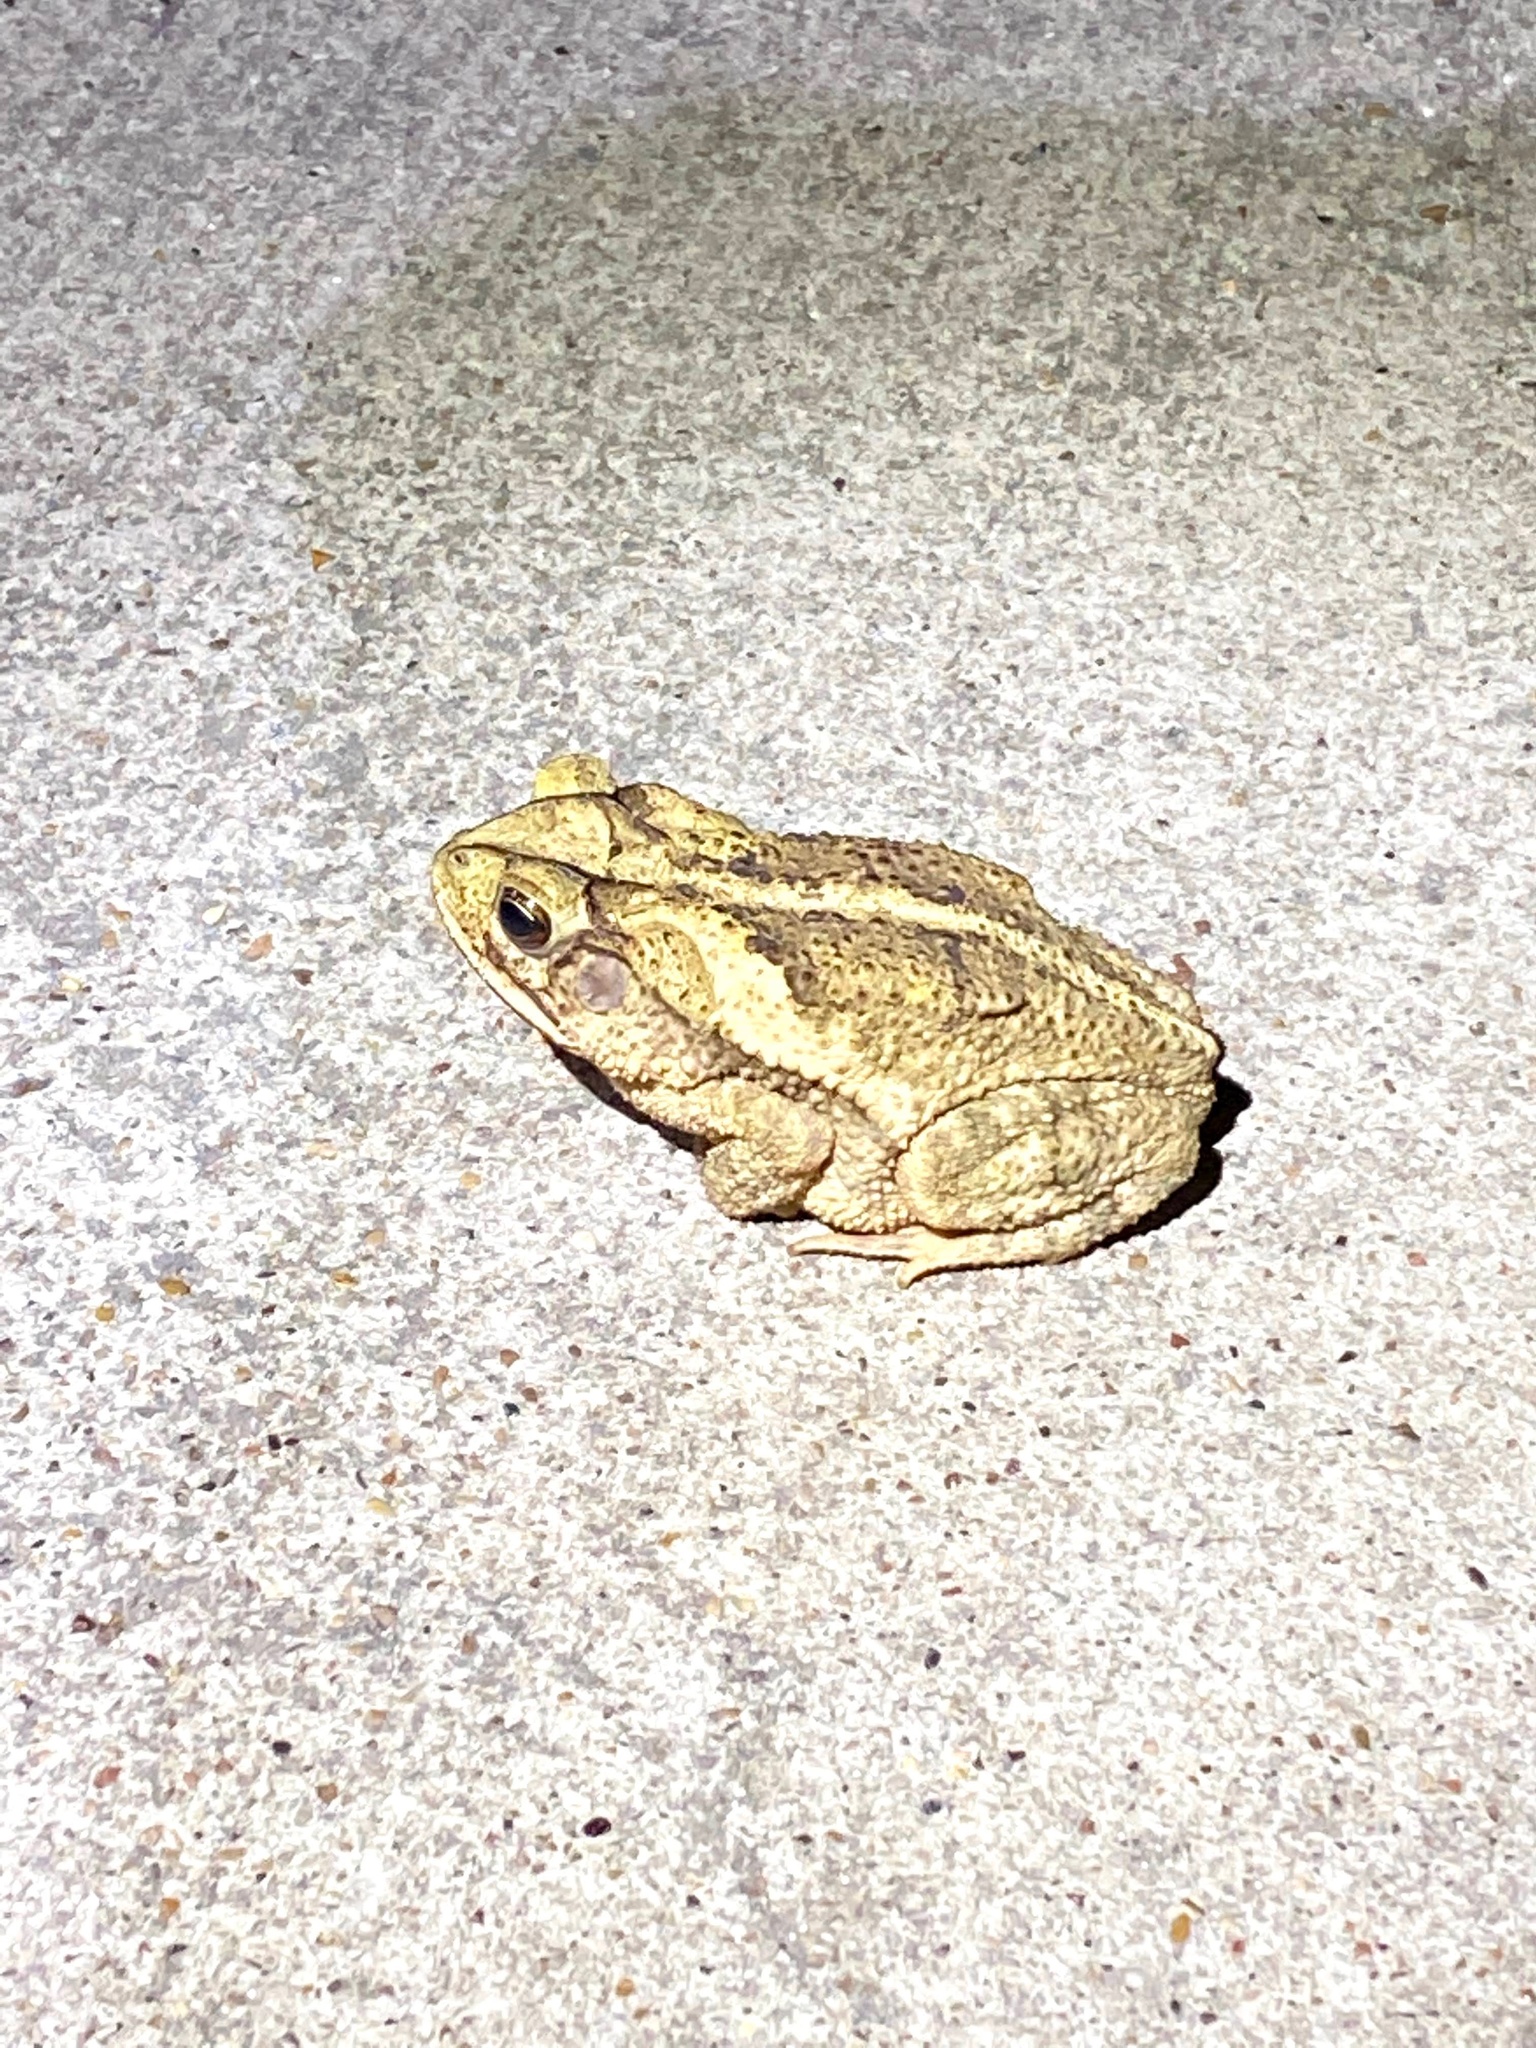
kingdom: Animalia
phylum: Chordata
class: Amphibia
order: Anura
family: Bufonidae
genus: Incilius
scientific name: Incilius nebulifer
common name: Gulf coast toad
